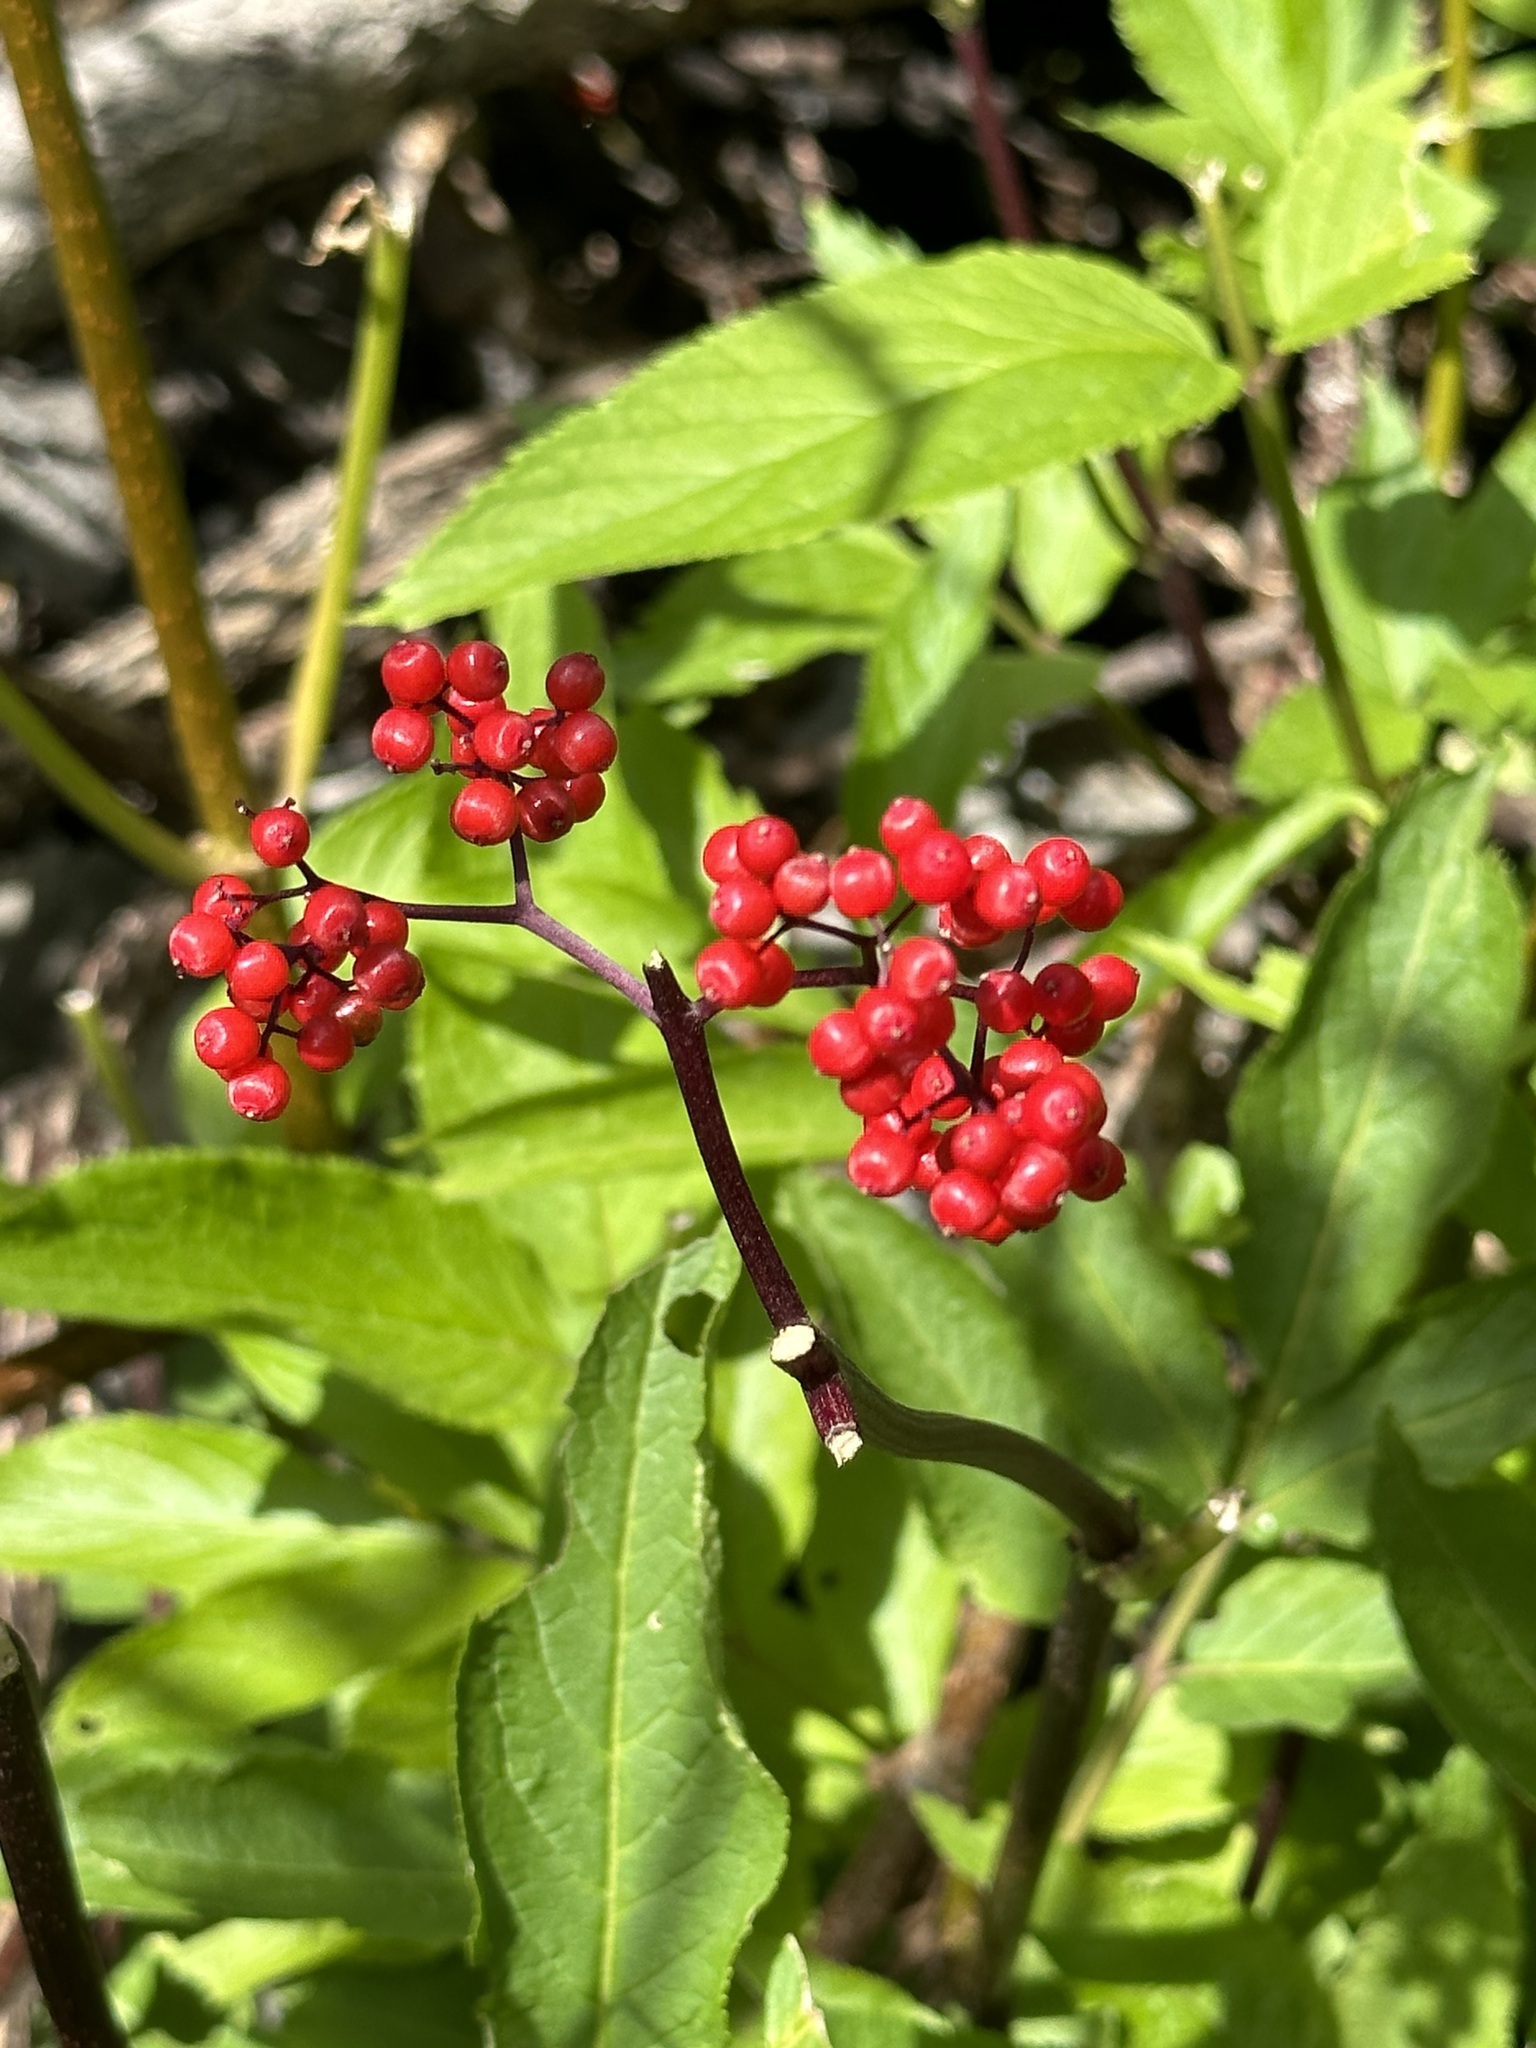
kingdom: Plantae
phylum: Tracheophyta
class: Magnoliopsida
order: Dipsacales
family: Viburnaceae
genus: Sambucus
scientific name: Sambucus racemosa
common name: Red-berried elder
